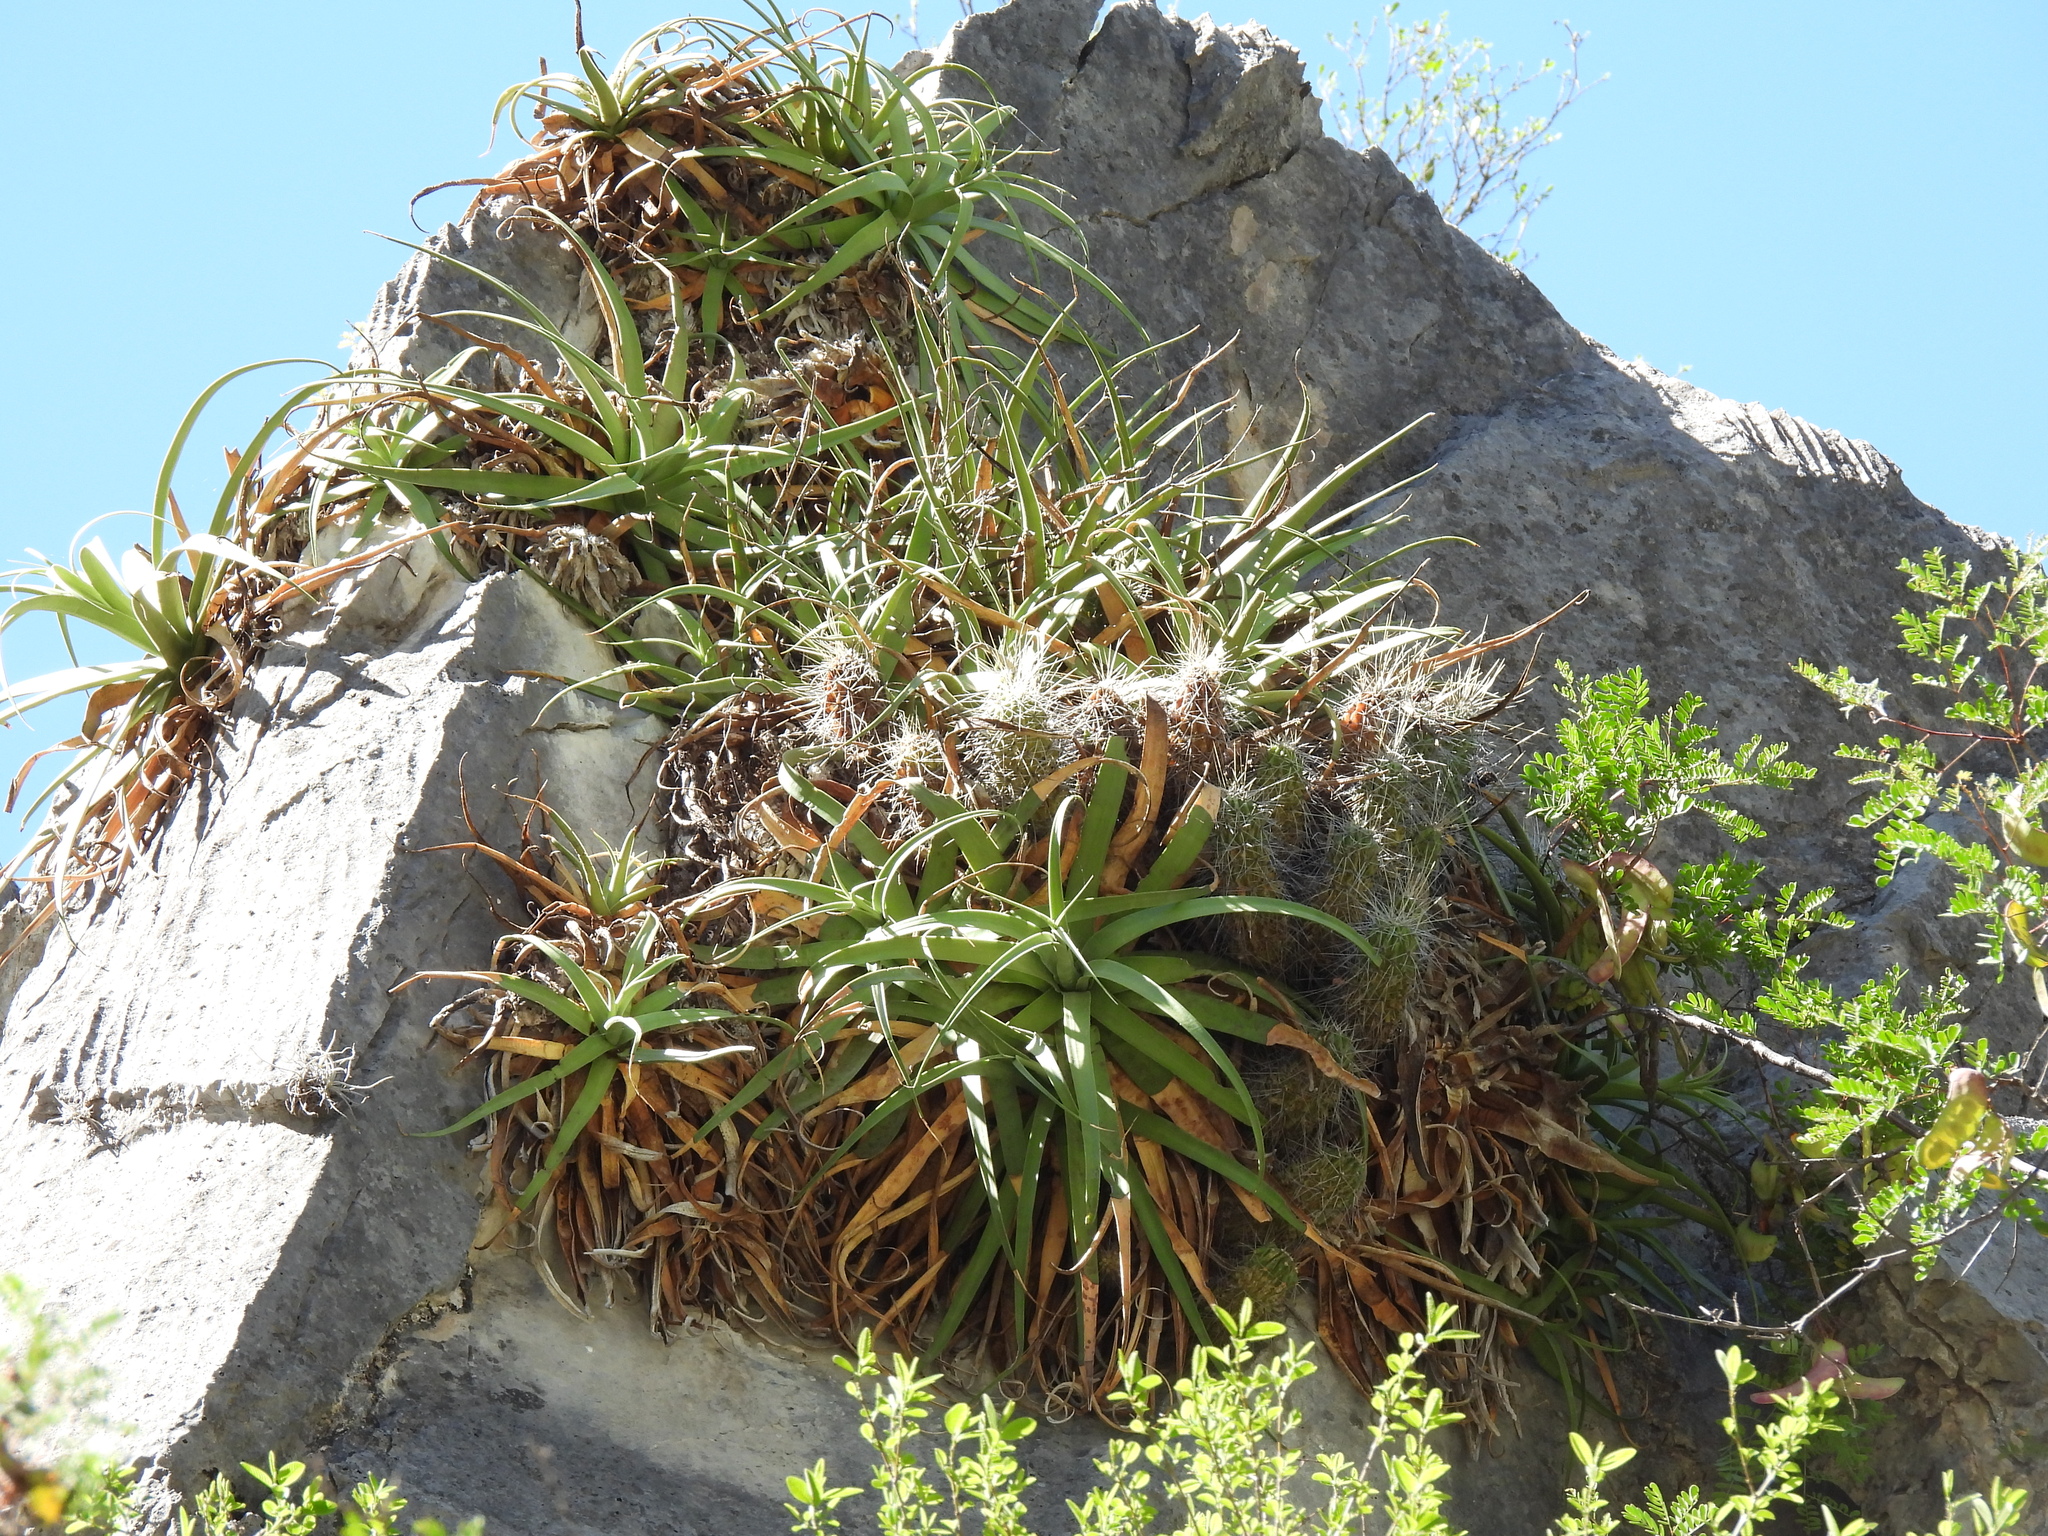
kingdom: Plantae
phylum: Tracheophyta
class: Liliopsida
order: Asparagales
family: Asparagaceae
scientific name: Asparagaceae
